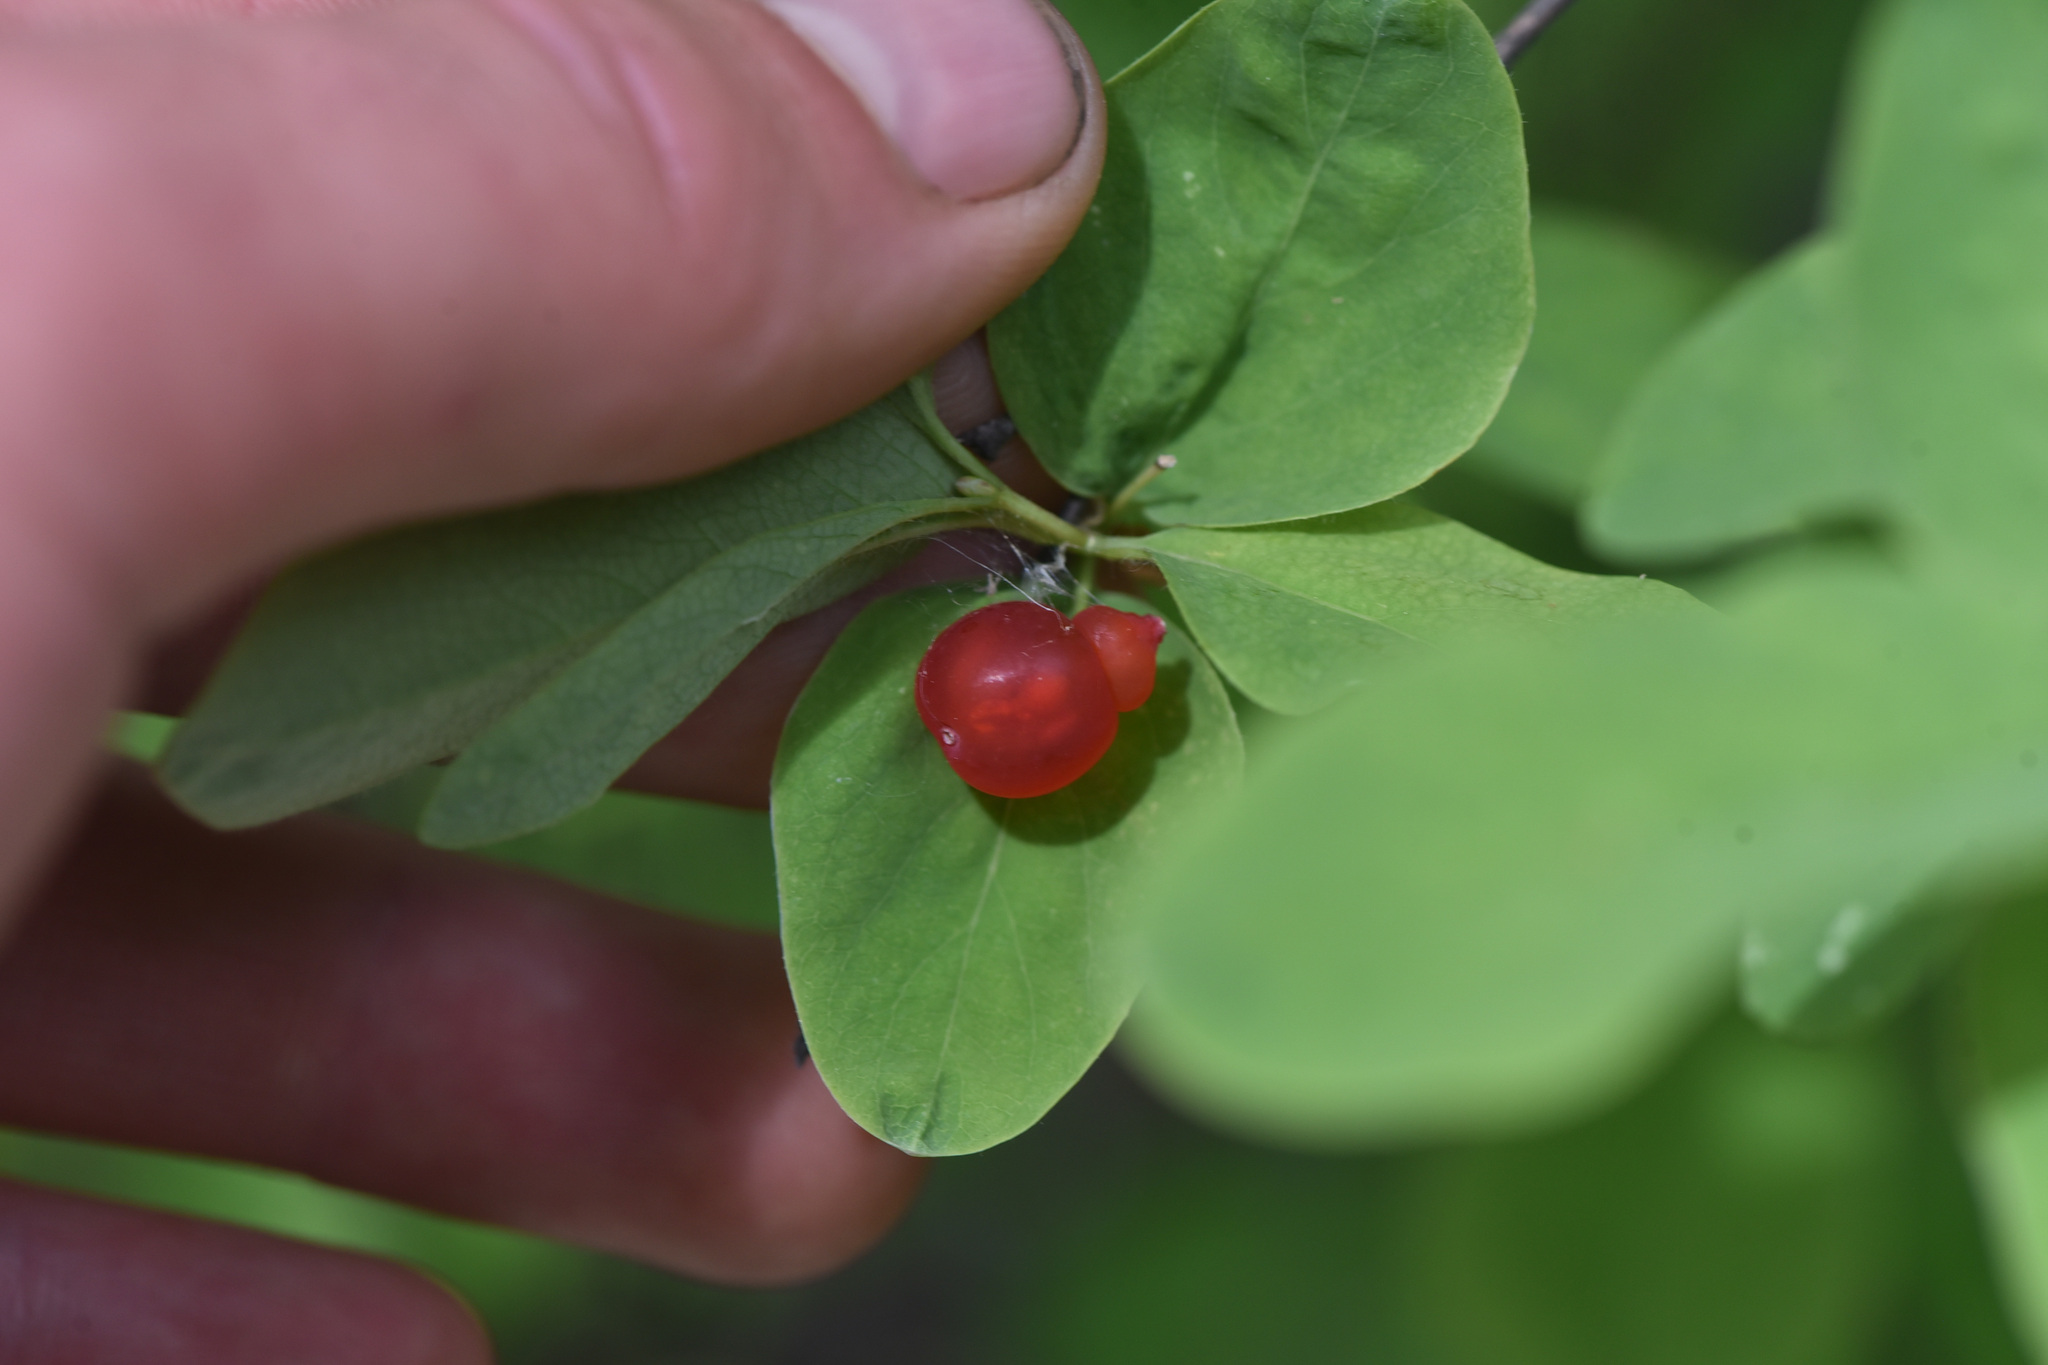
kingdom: Plantae
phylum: Tracheophyta
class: Magnoliopsida
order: Dipsacales
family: Caprifoliaceae
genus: Lonicera
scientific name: Lonicera utahensis
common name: Utah honeysuckle
